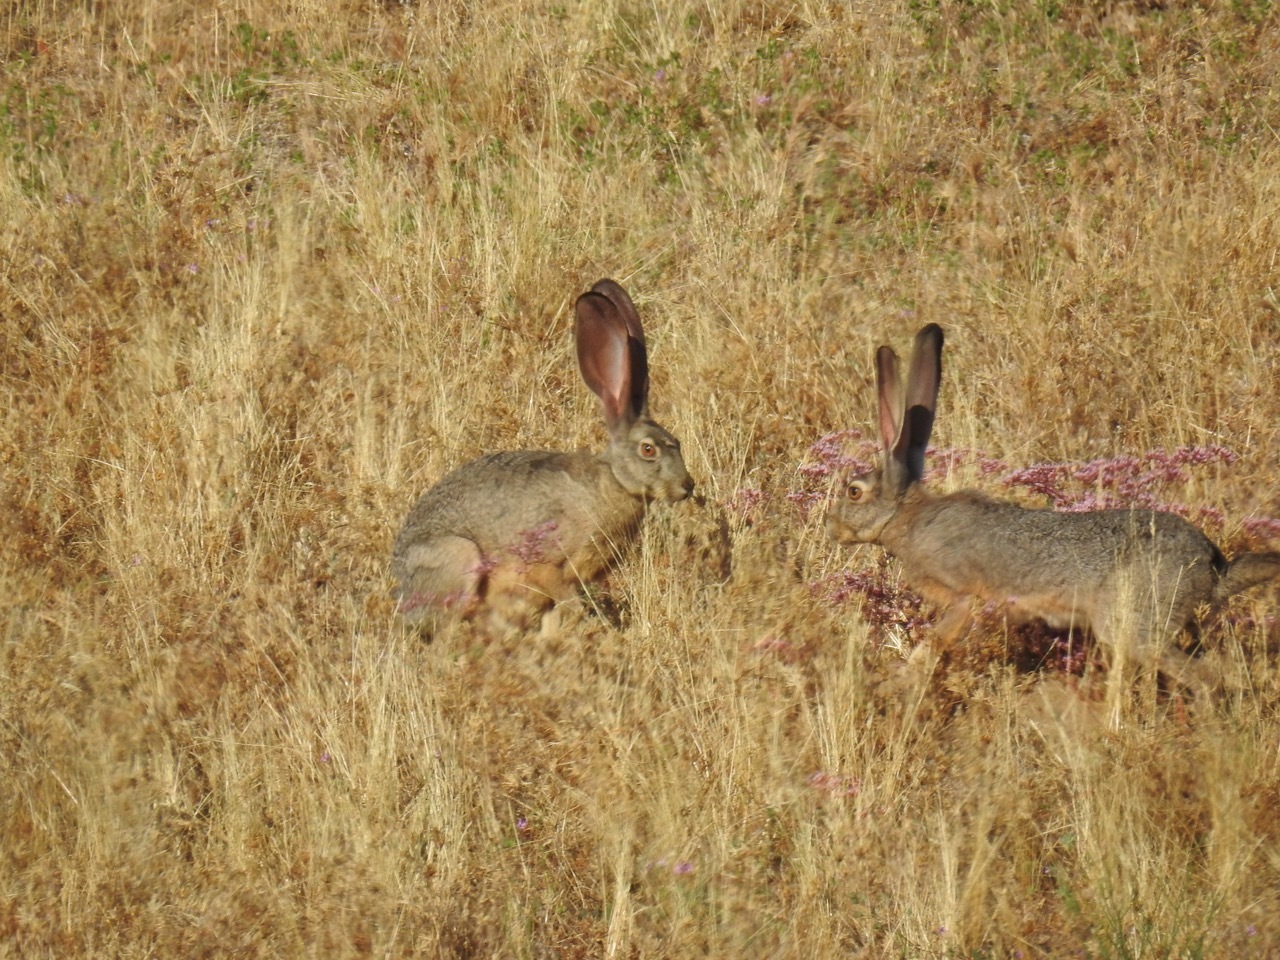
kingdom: Animalia
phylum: Chordata
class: Mammalia
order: Lagomorpha
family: Leporidae
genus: Lepus
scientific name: Lepus californicus
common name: Black-tailed jackrabbit
